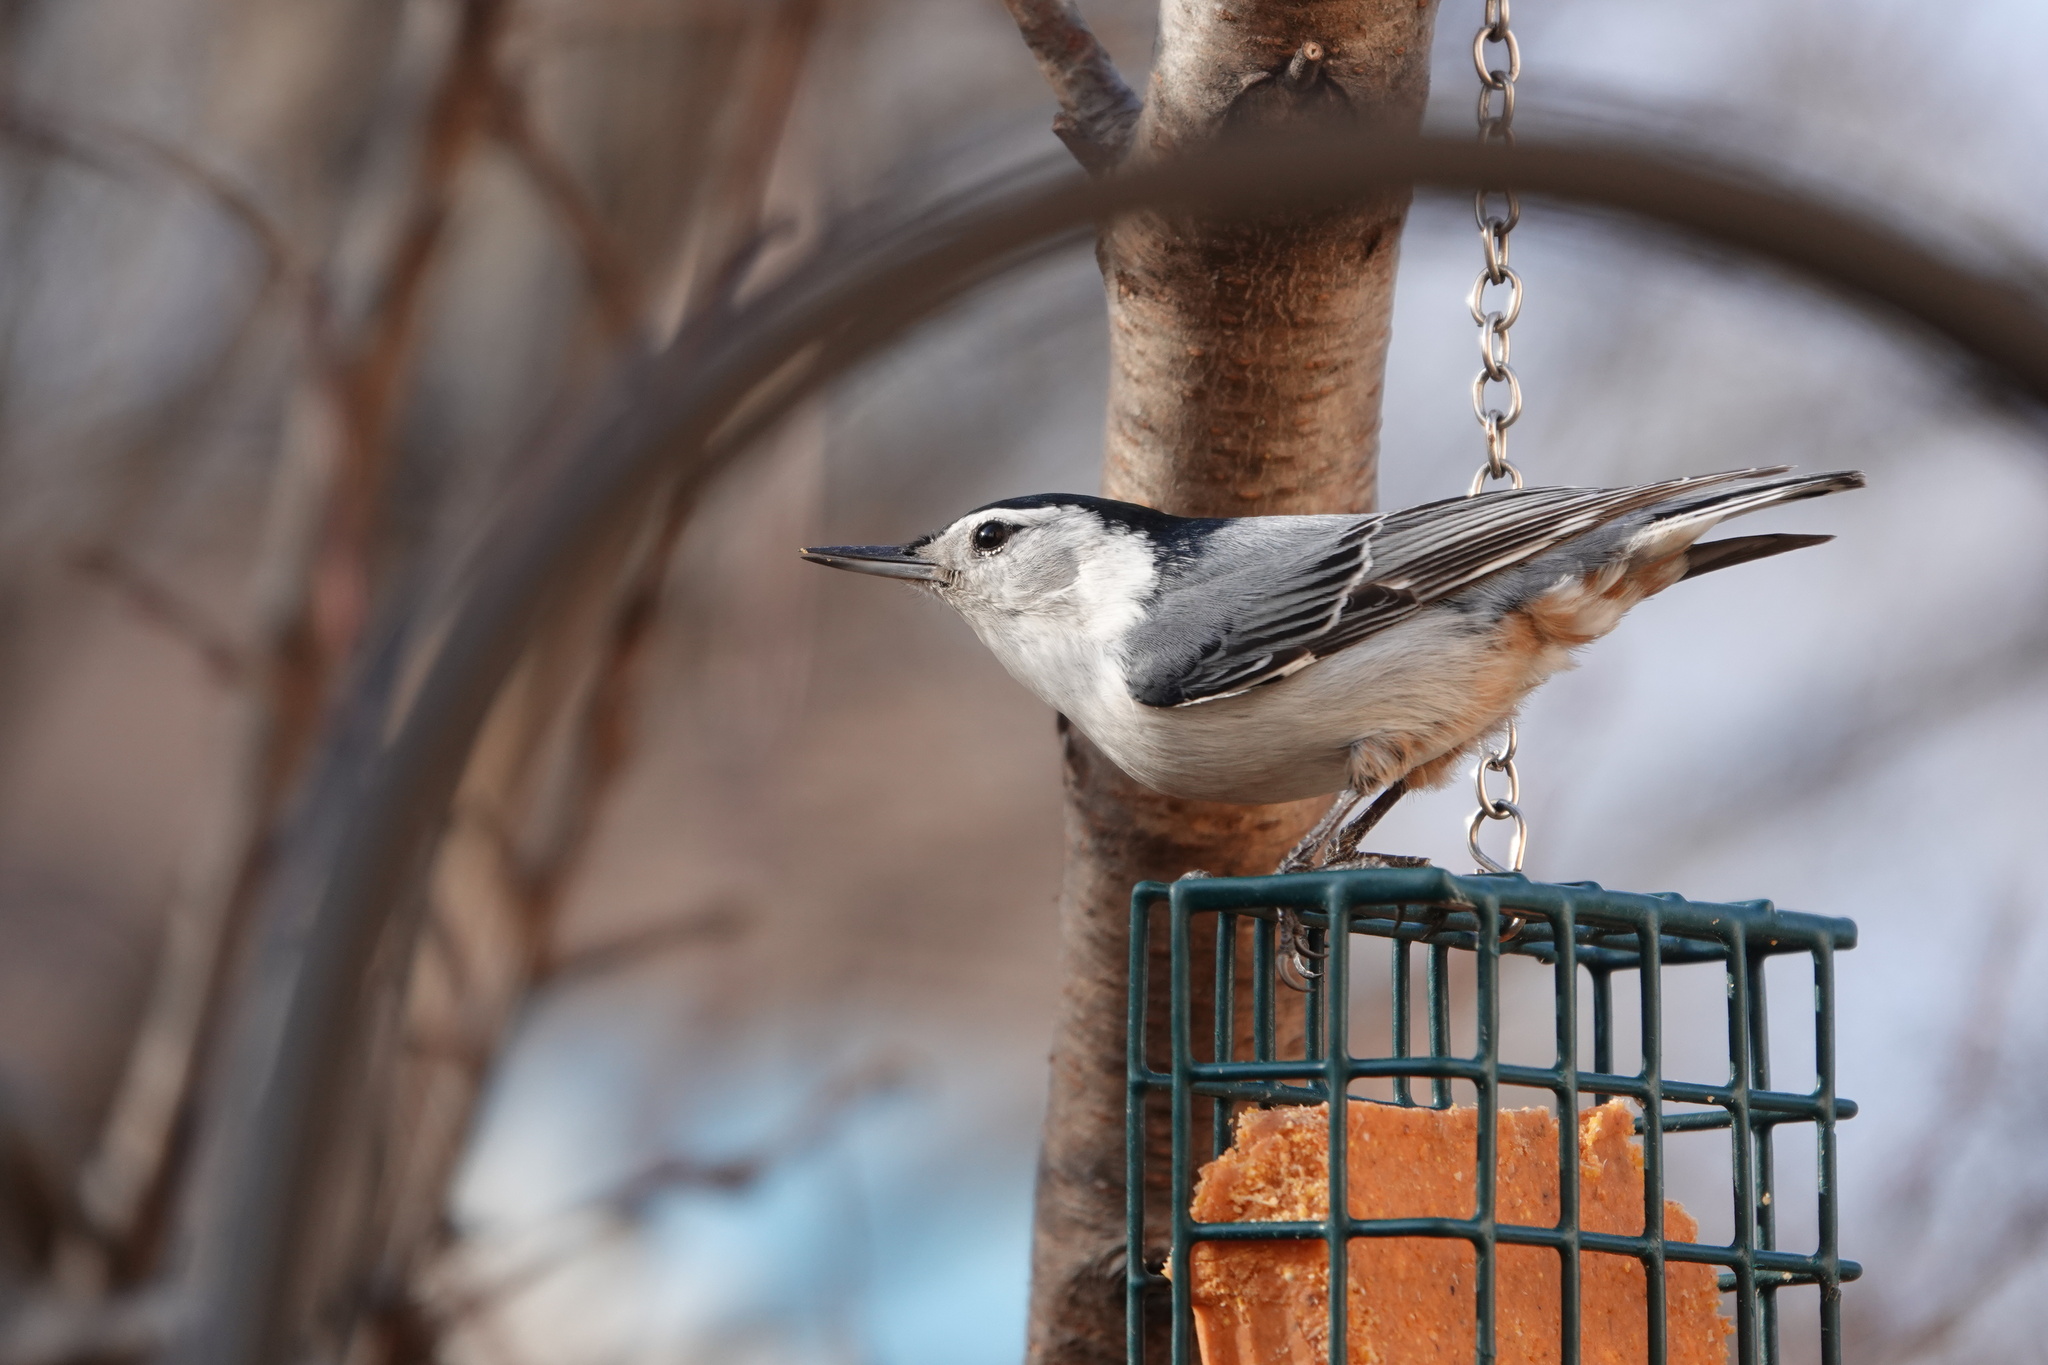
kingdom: Animalia
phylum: Chordata
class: Aves
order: Passeriformes
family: Sittidae
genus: Sitta
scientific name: Sitta carolinensis
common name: White-breasted nuthatch
